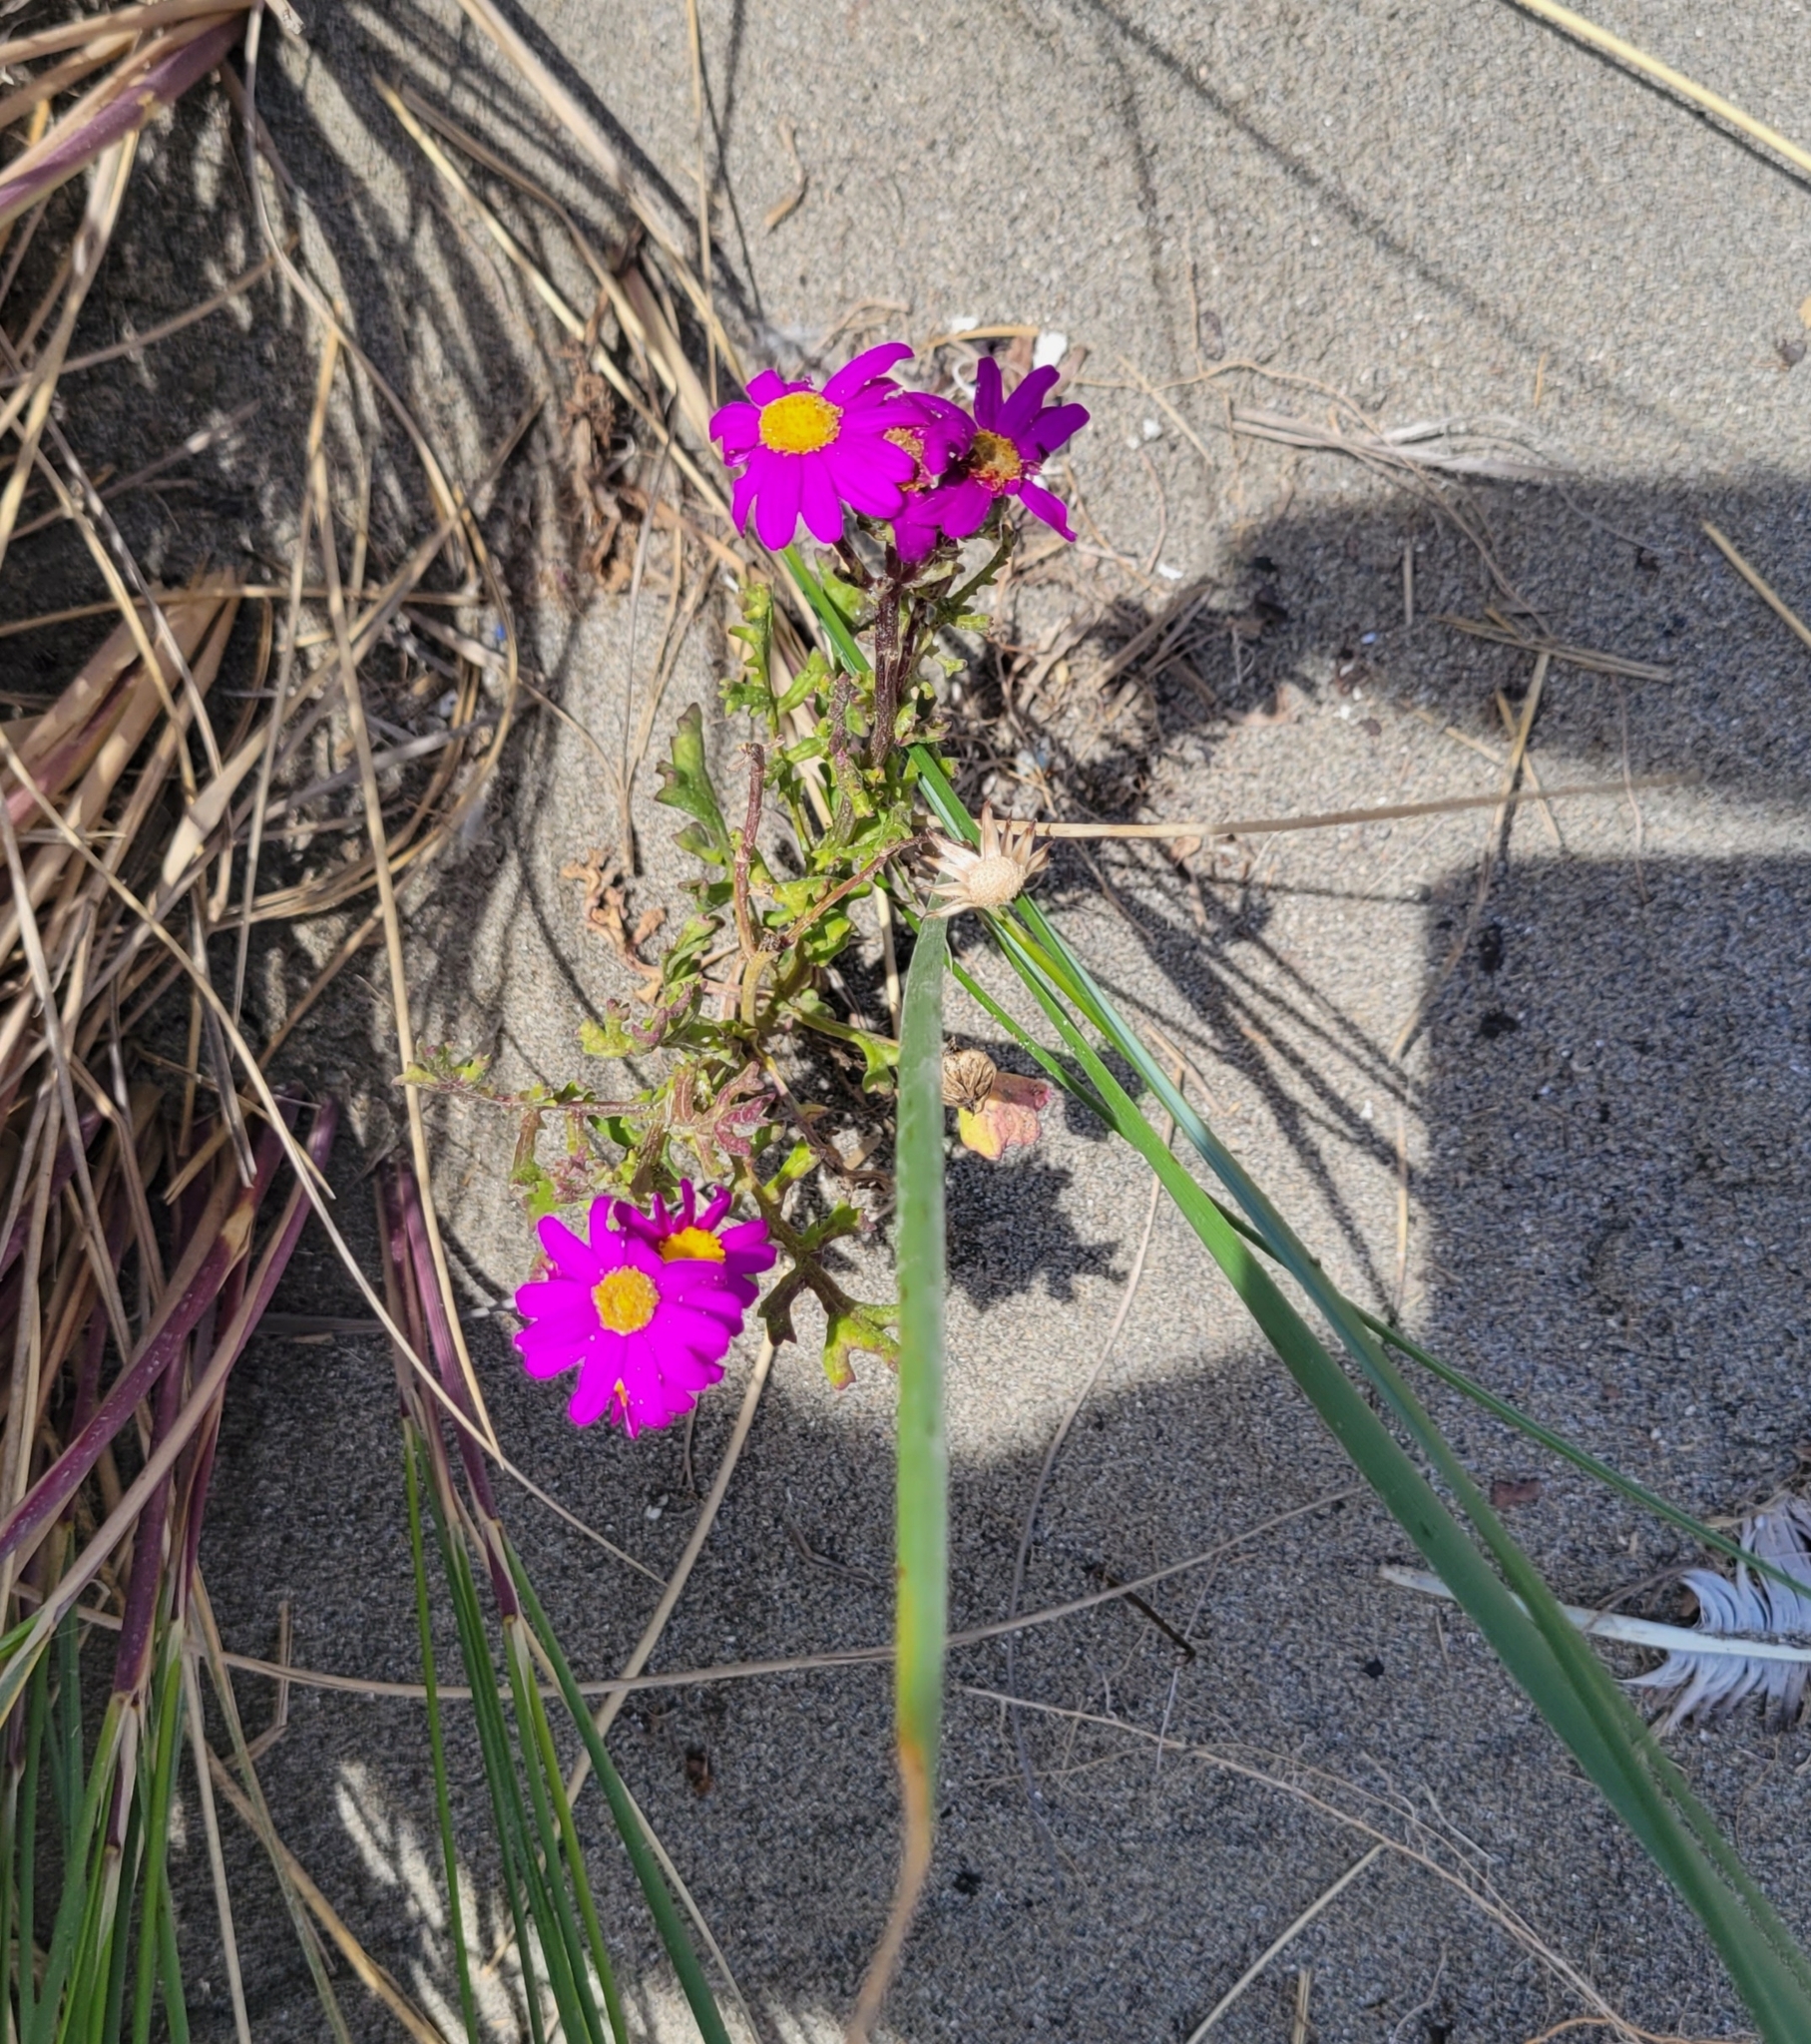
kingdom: Plantae
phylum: Tracheophyta
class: Magnoliopsida
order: Asterales
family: Asteraceae
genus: Senecio
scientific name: Senecio elegans
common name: Purple groundsel
